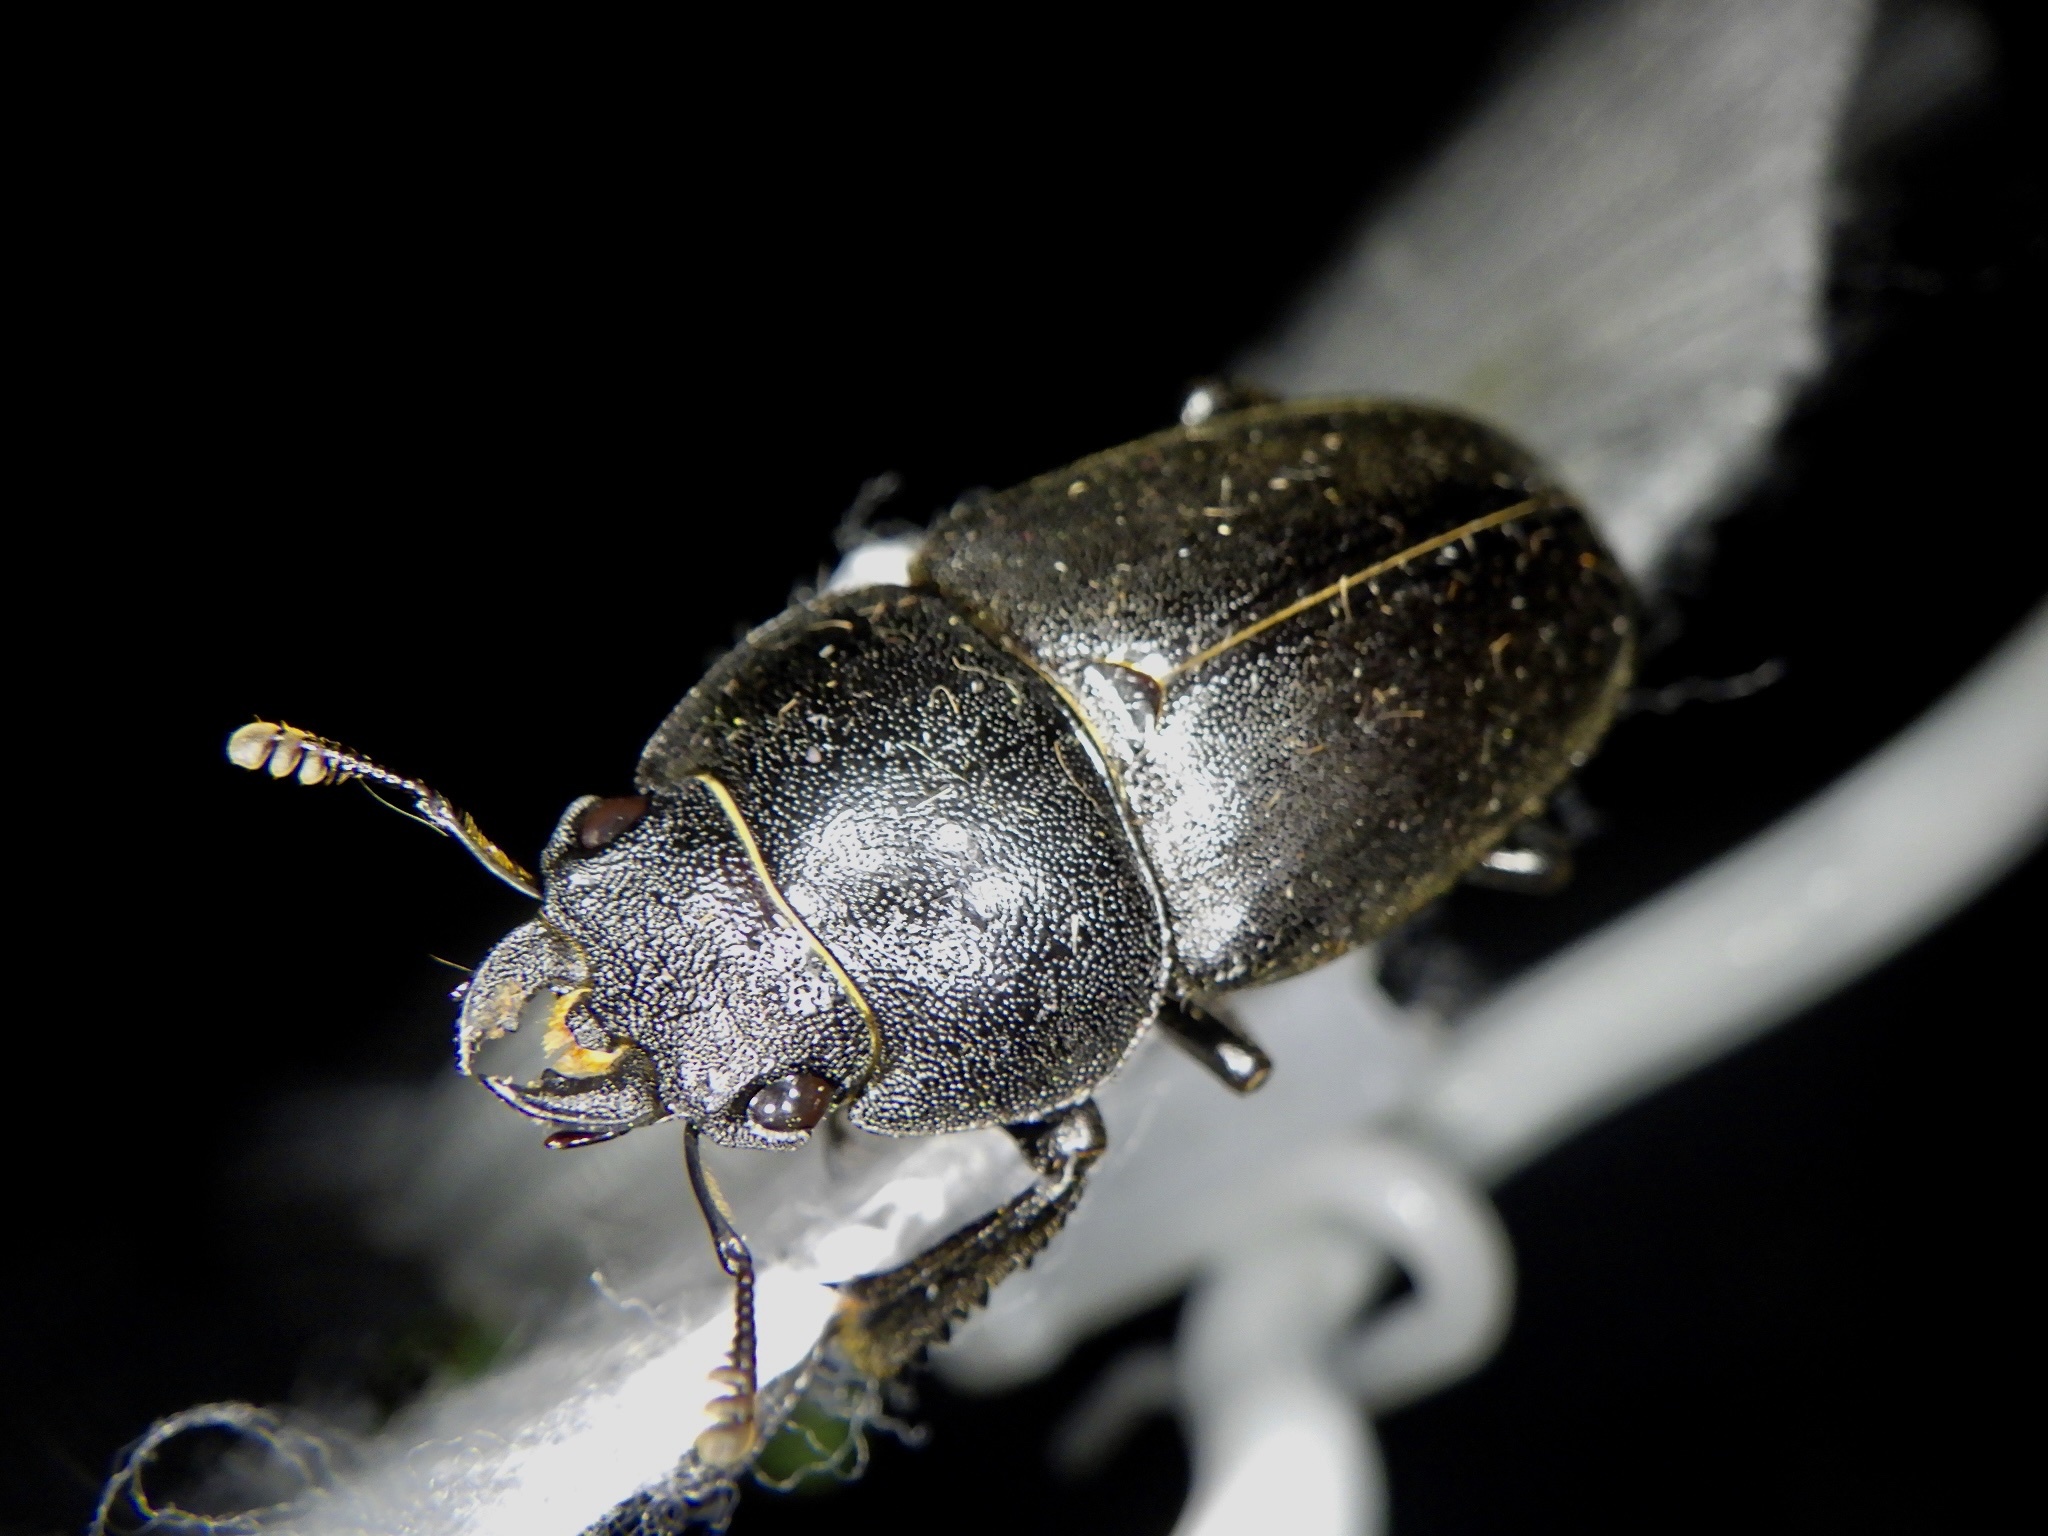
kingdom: Animalia
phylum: Arthropoda
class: Insecta
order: Coleoptera
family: Lucanidae
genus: Prosopocoilus
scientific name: Prosopocoilus inclinatus
